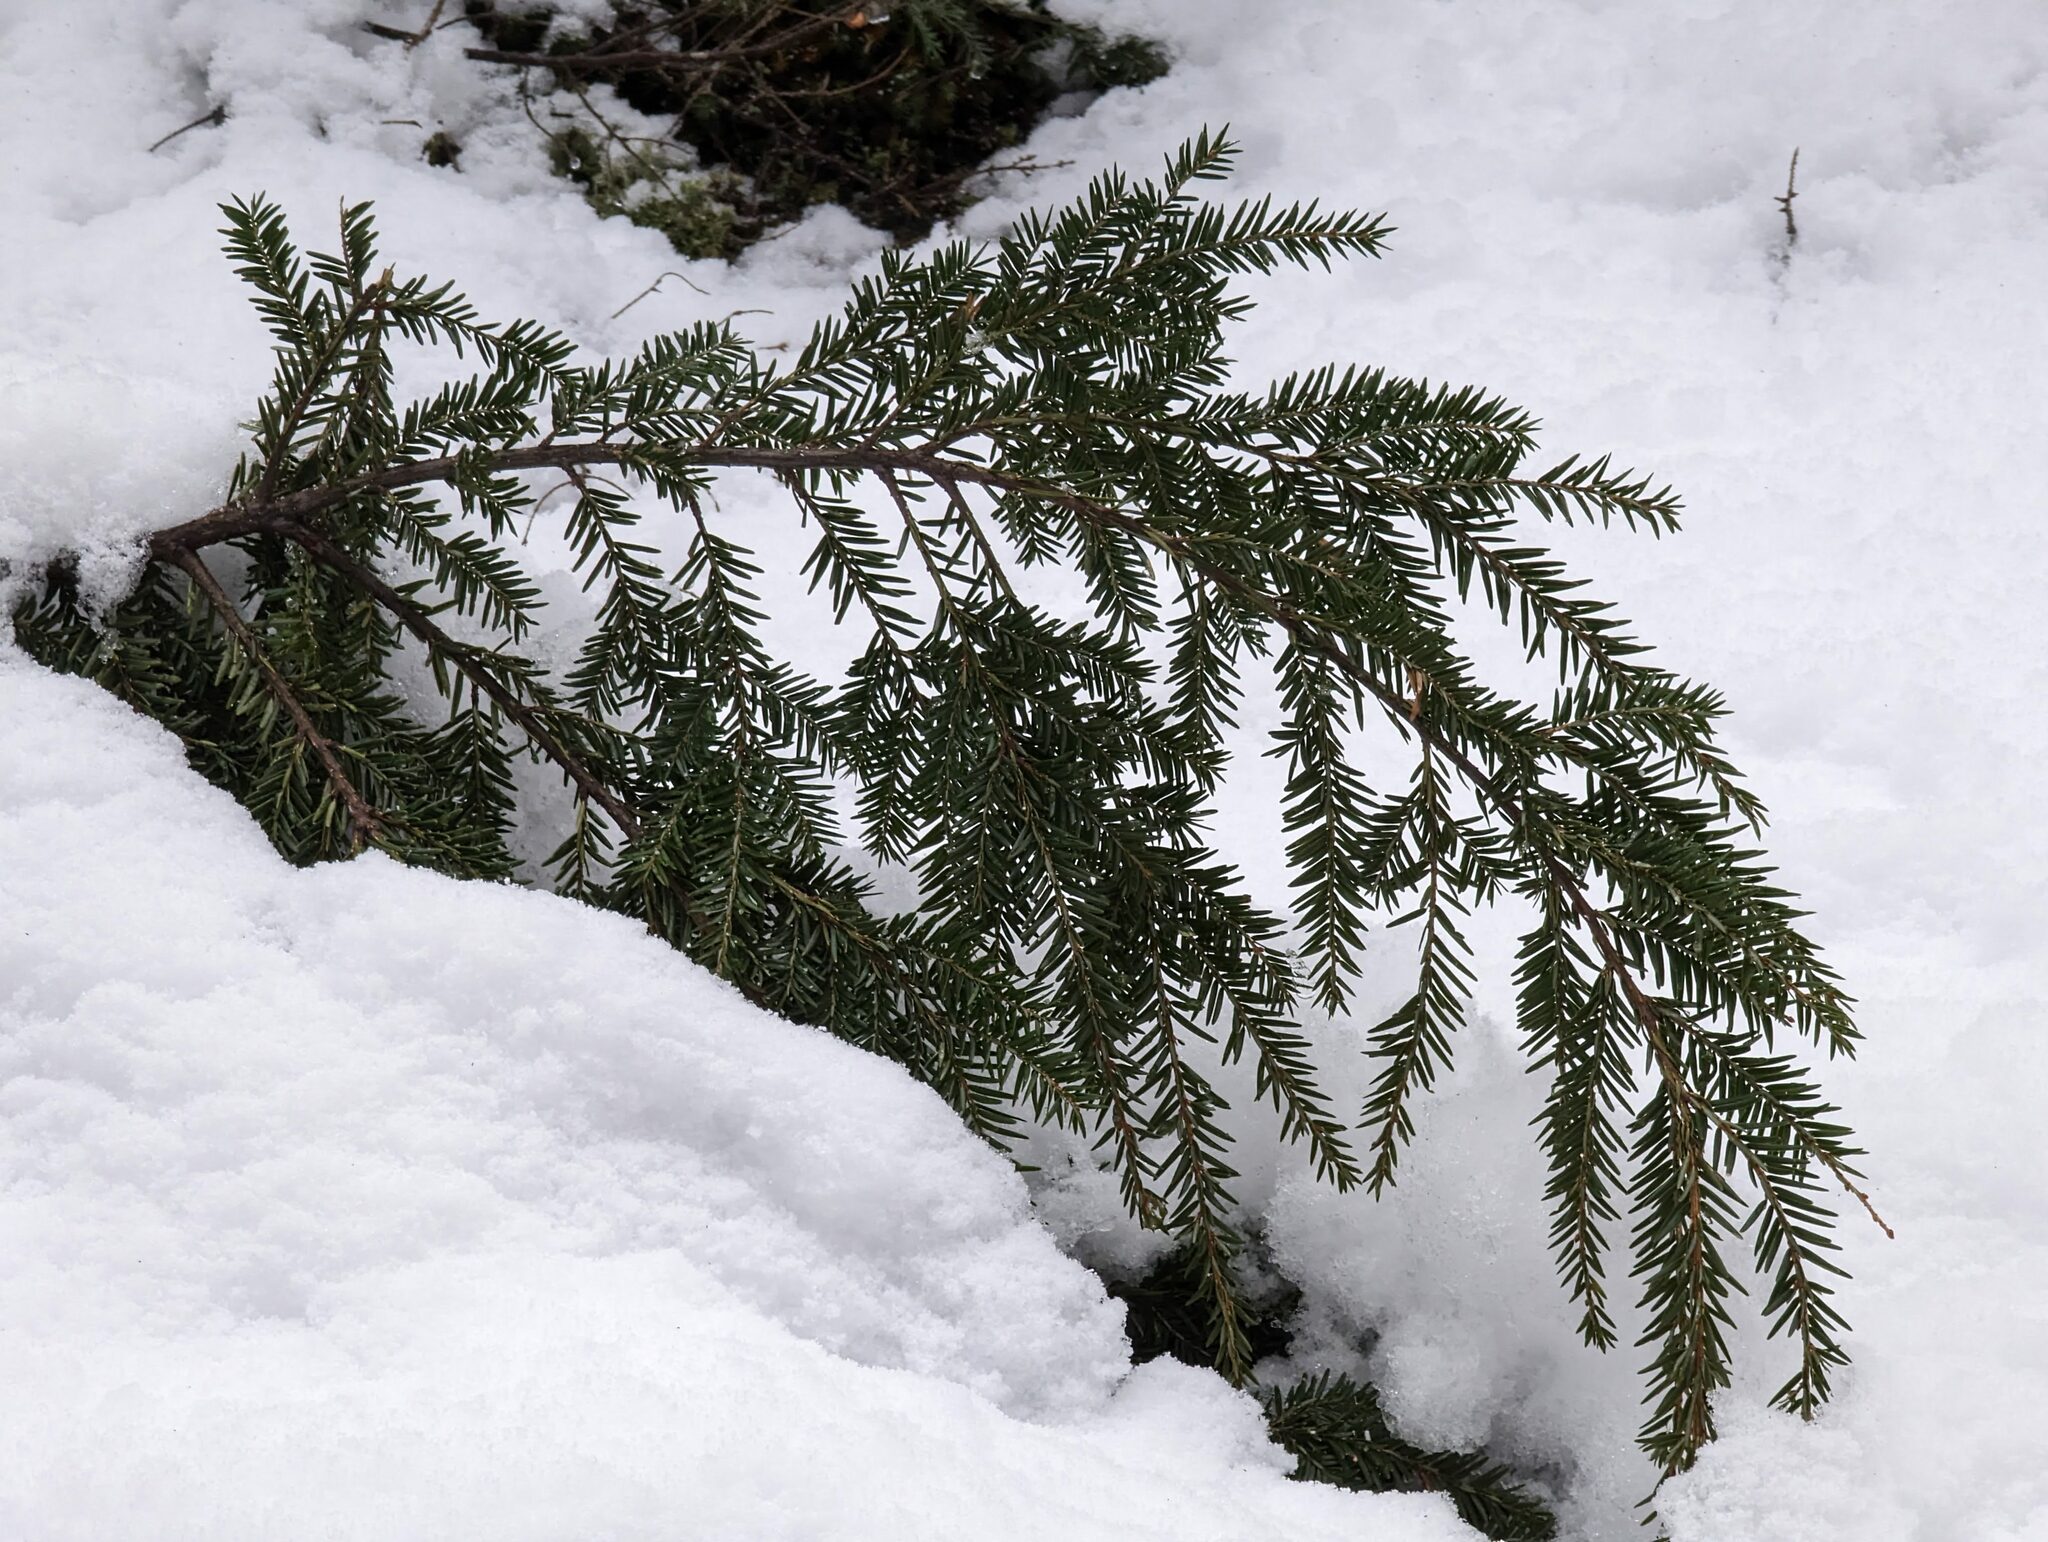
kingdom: Plantae
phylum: Tracheophyta
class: Pinopsida
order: Pinales
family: Pinaceae
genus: Tsuga
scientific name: Tsuga canadensis
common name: Eastern hemlock
